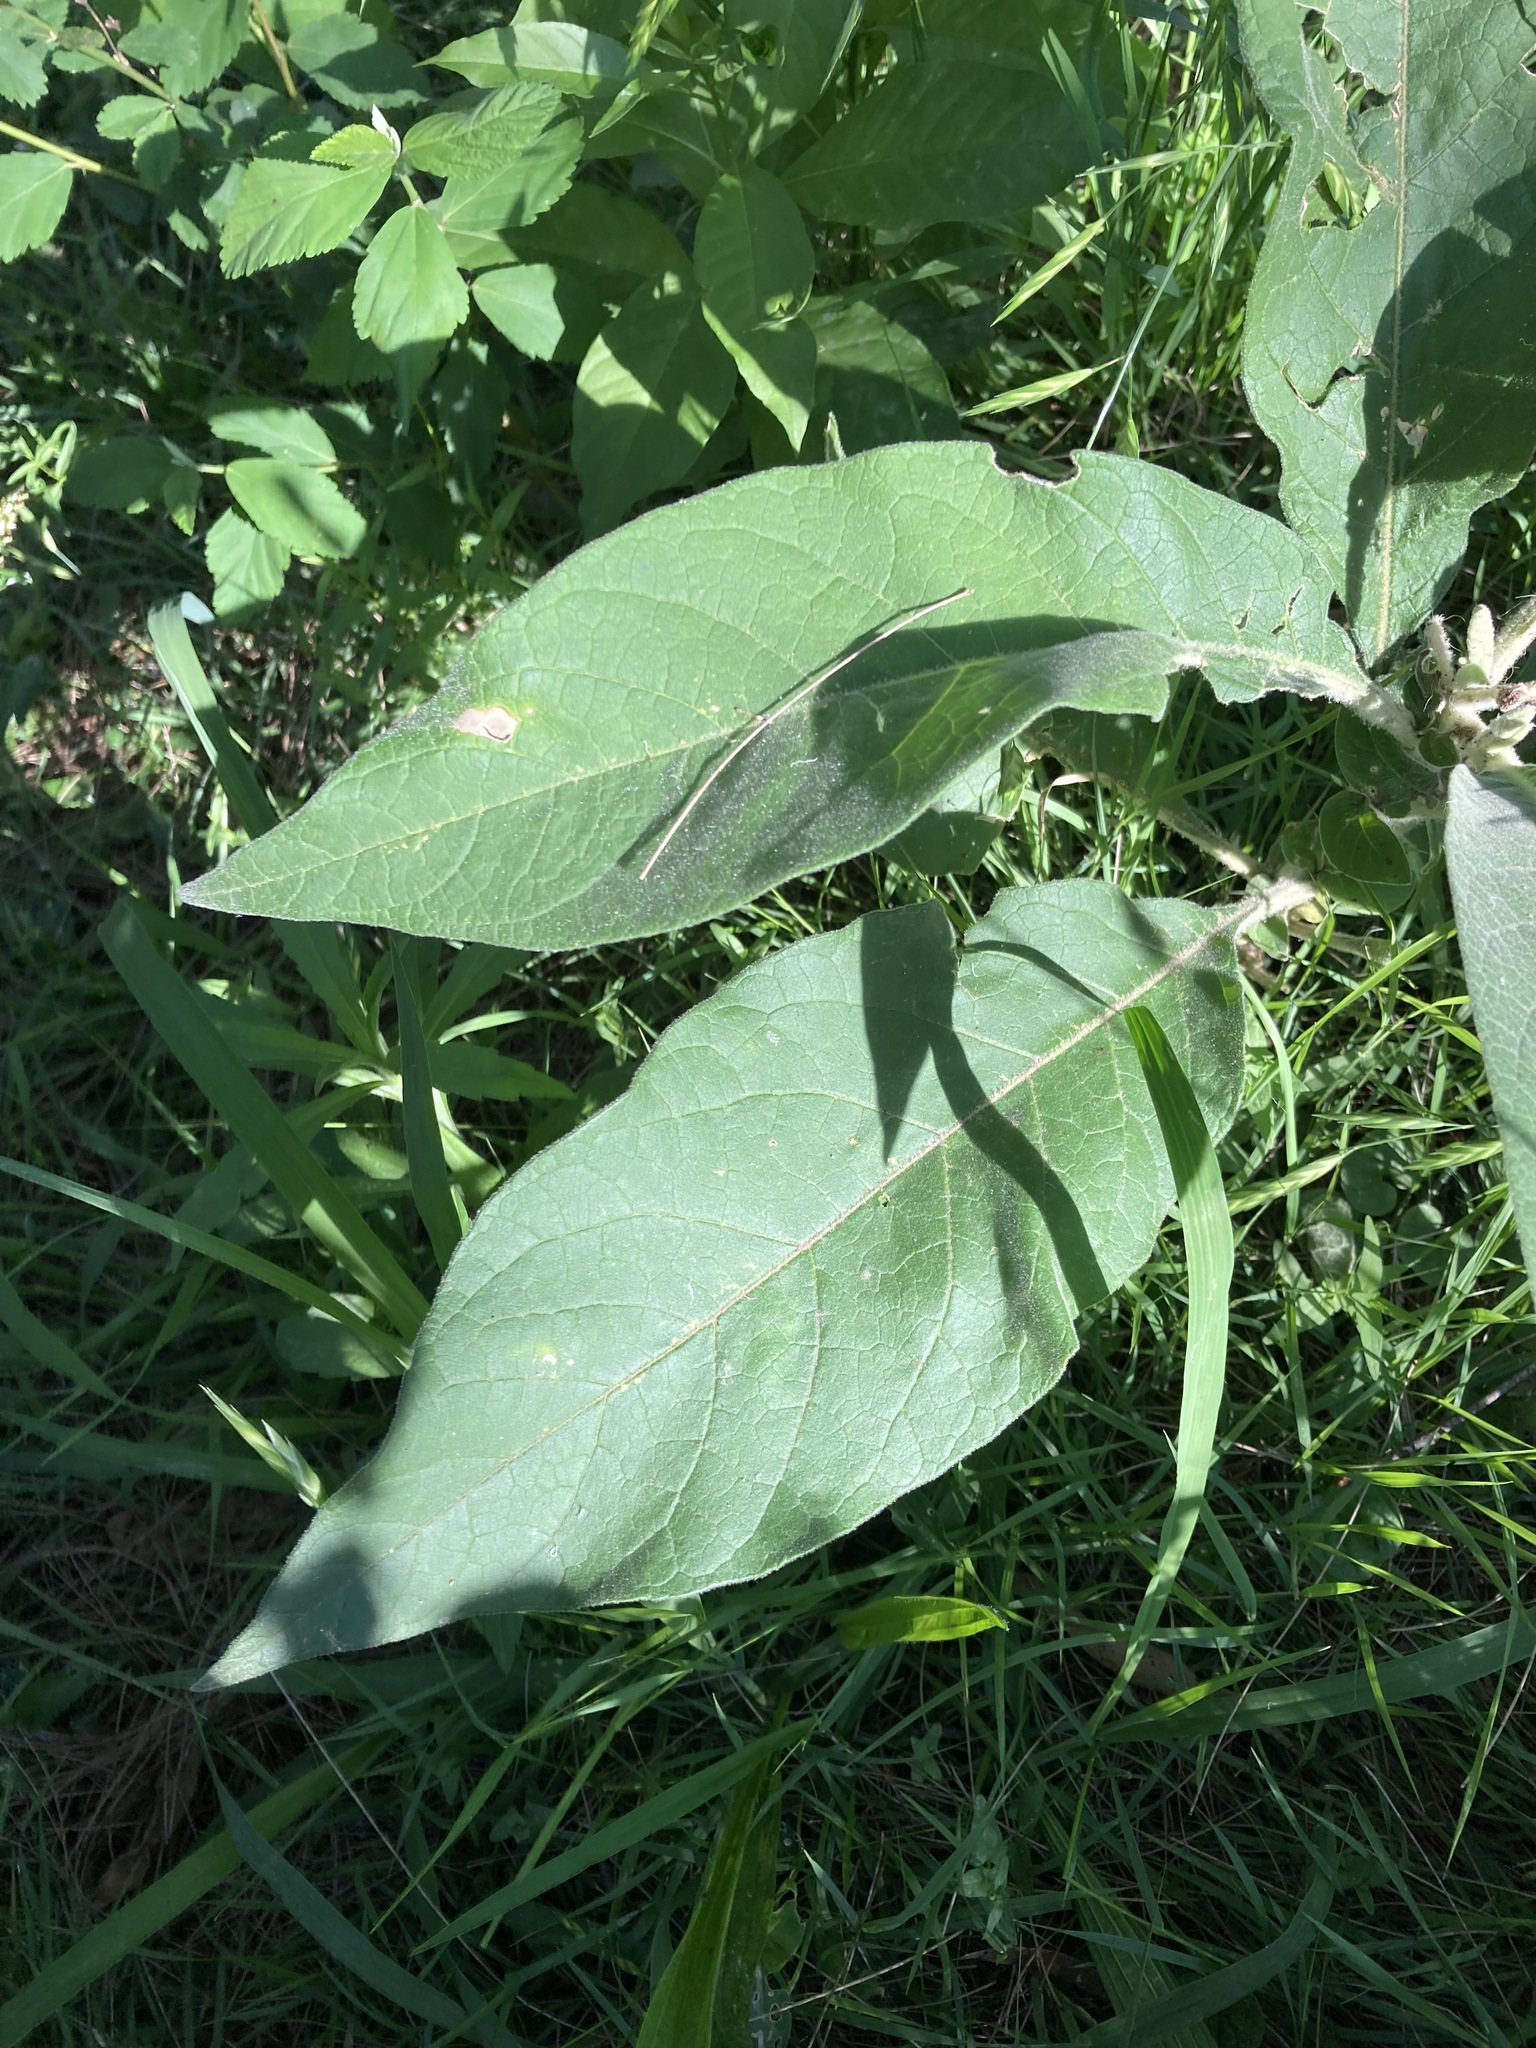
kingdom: Plantae
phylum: Tracheophyta
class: Magnoliopsida
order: Solanales
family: Solanaceae
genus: Solanum
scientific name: Solanum mauritianum
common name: Earleaf nightshade
